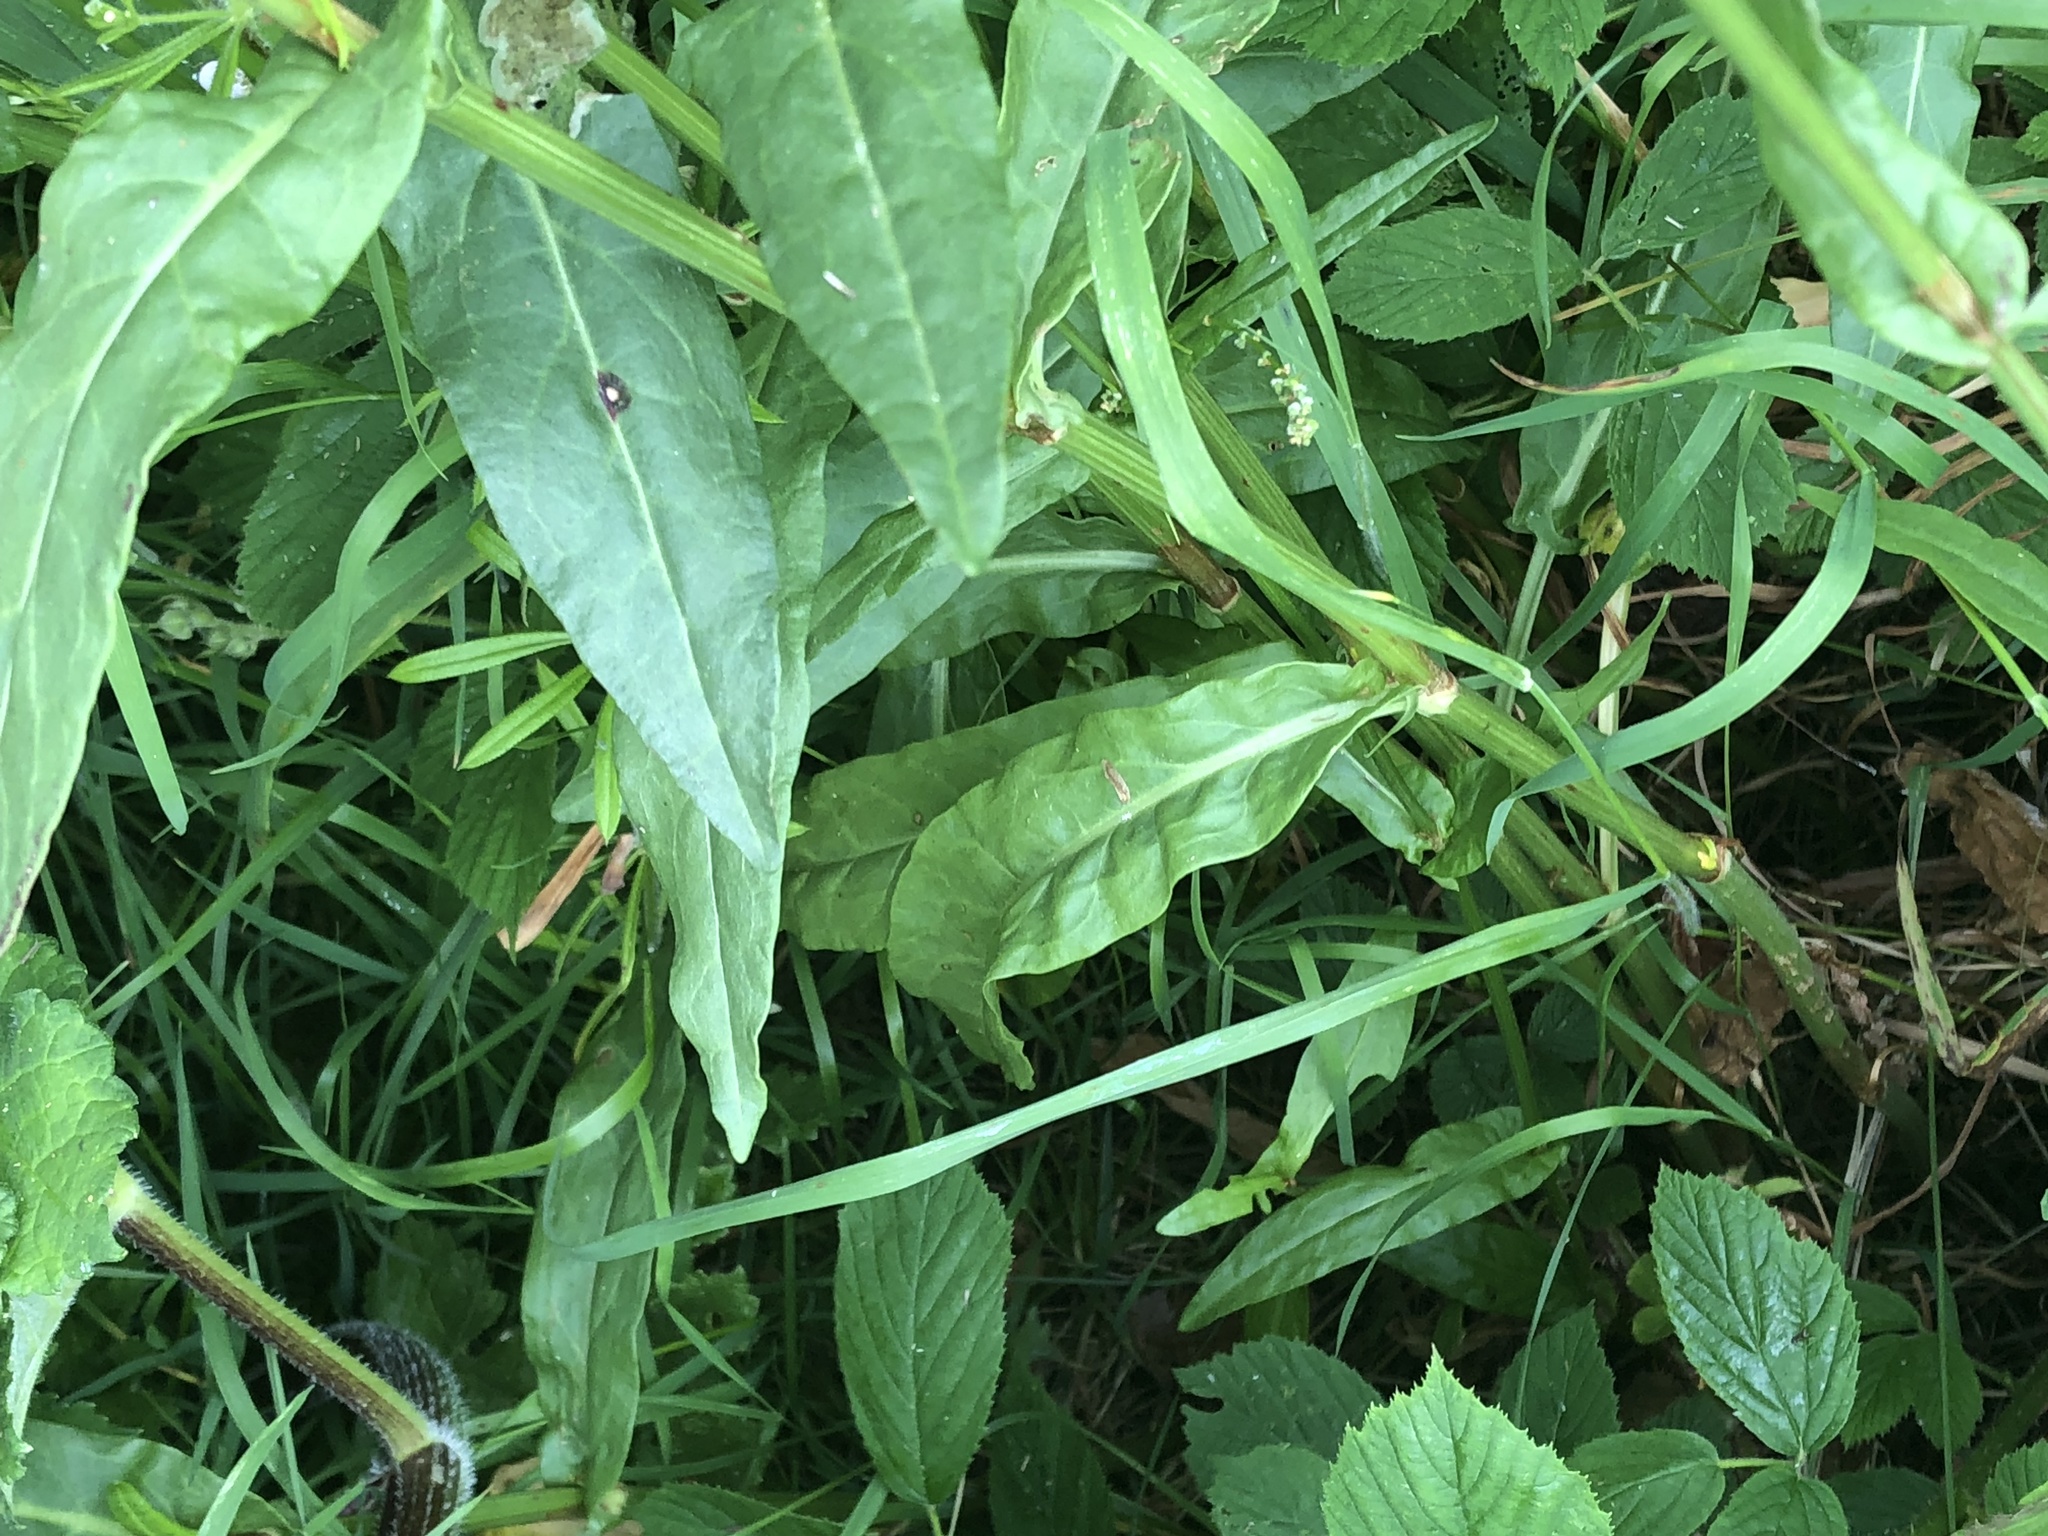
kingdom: Plantae
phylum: Tracheophyta
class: Magnoliopsida
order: Caryophyllales
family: Polygonaceae
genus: Rumex
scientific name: Rumex acetosa
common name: Garden sorrel
